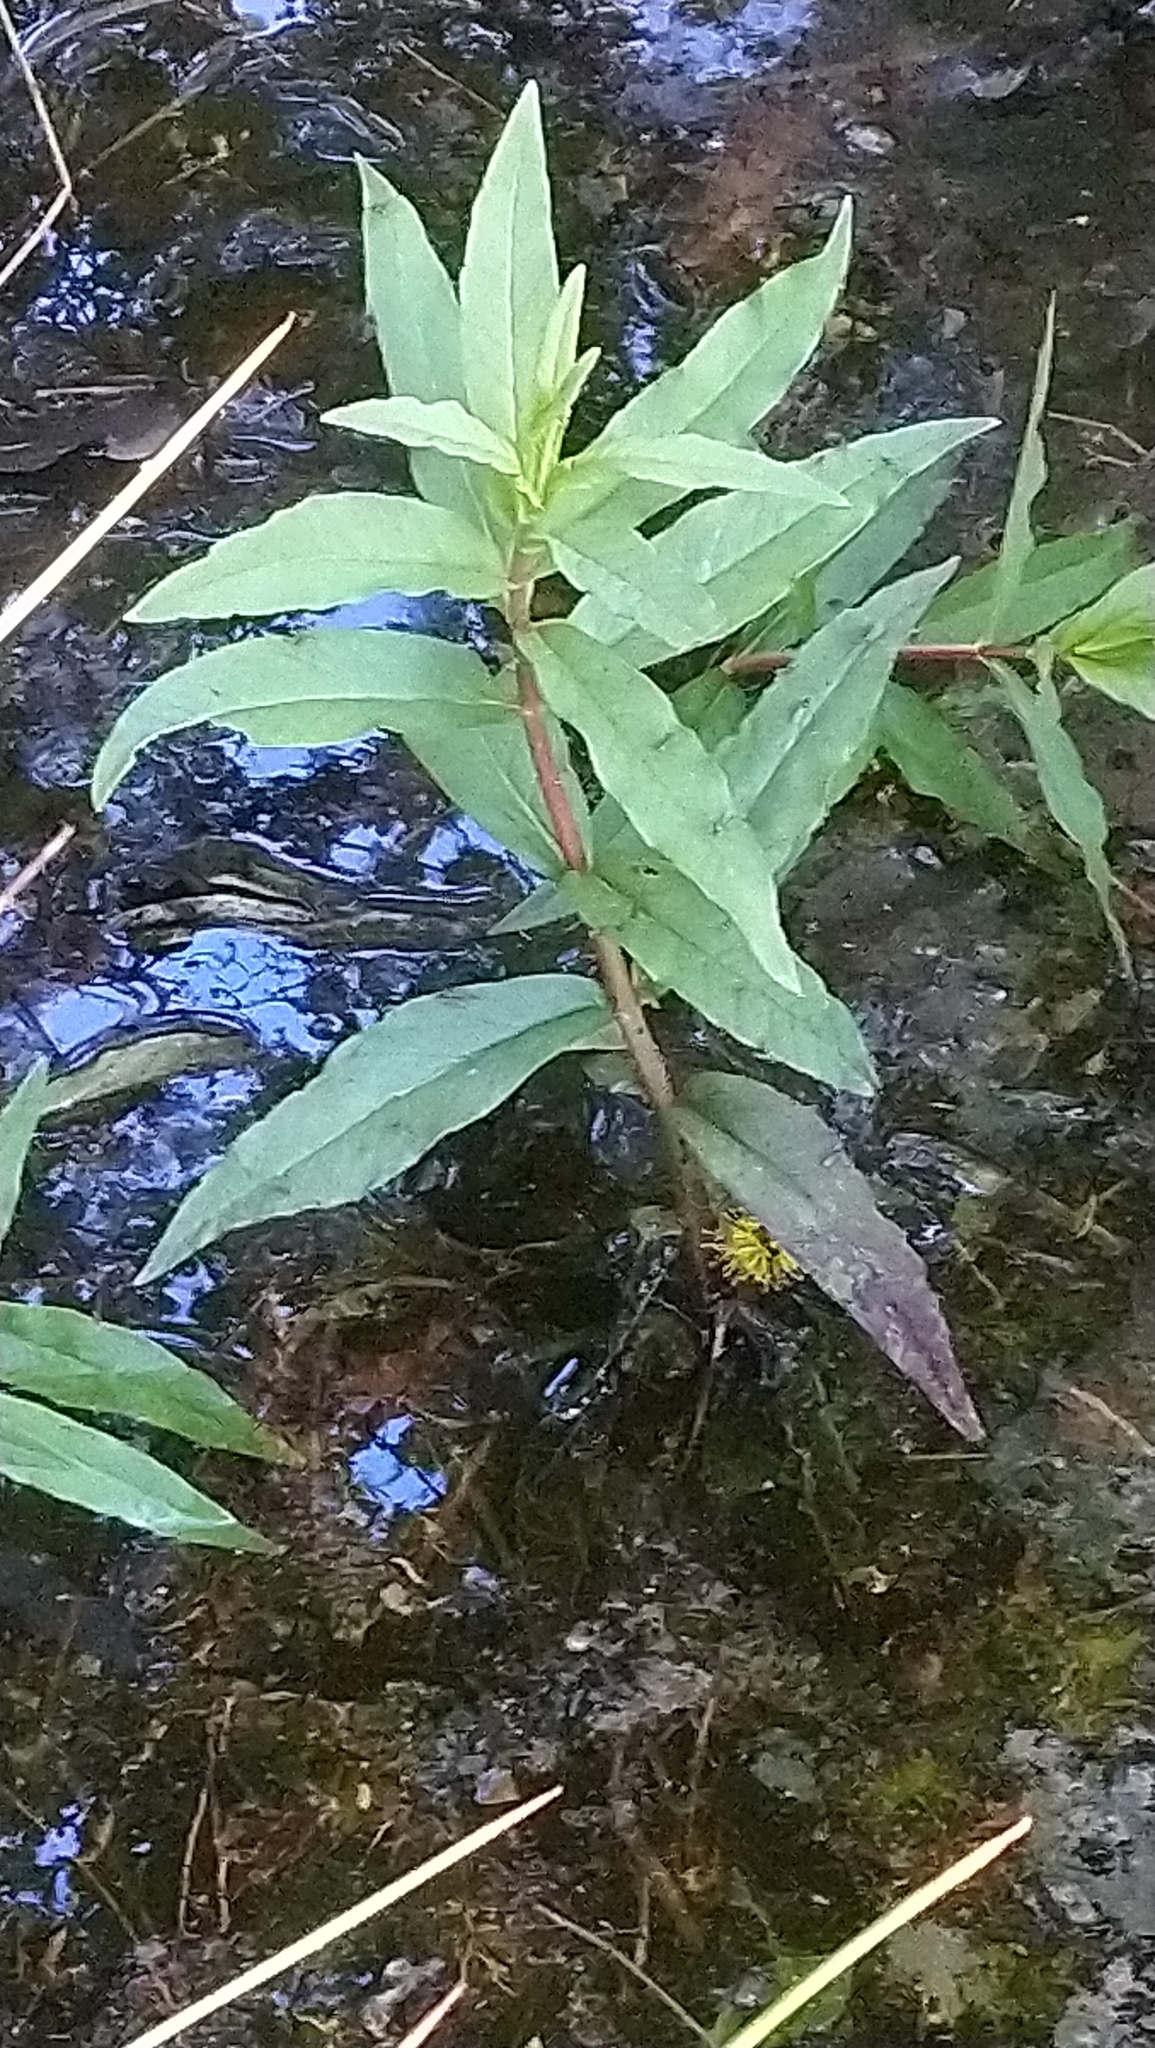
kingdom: Plantae
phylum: Tracheophyta
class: Magnoliopsida
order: Ericales
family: Primulaceae
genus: Lysimachia
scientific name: Lysimachia thyrsiflora
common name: Tufted loosestrife
